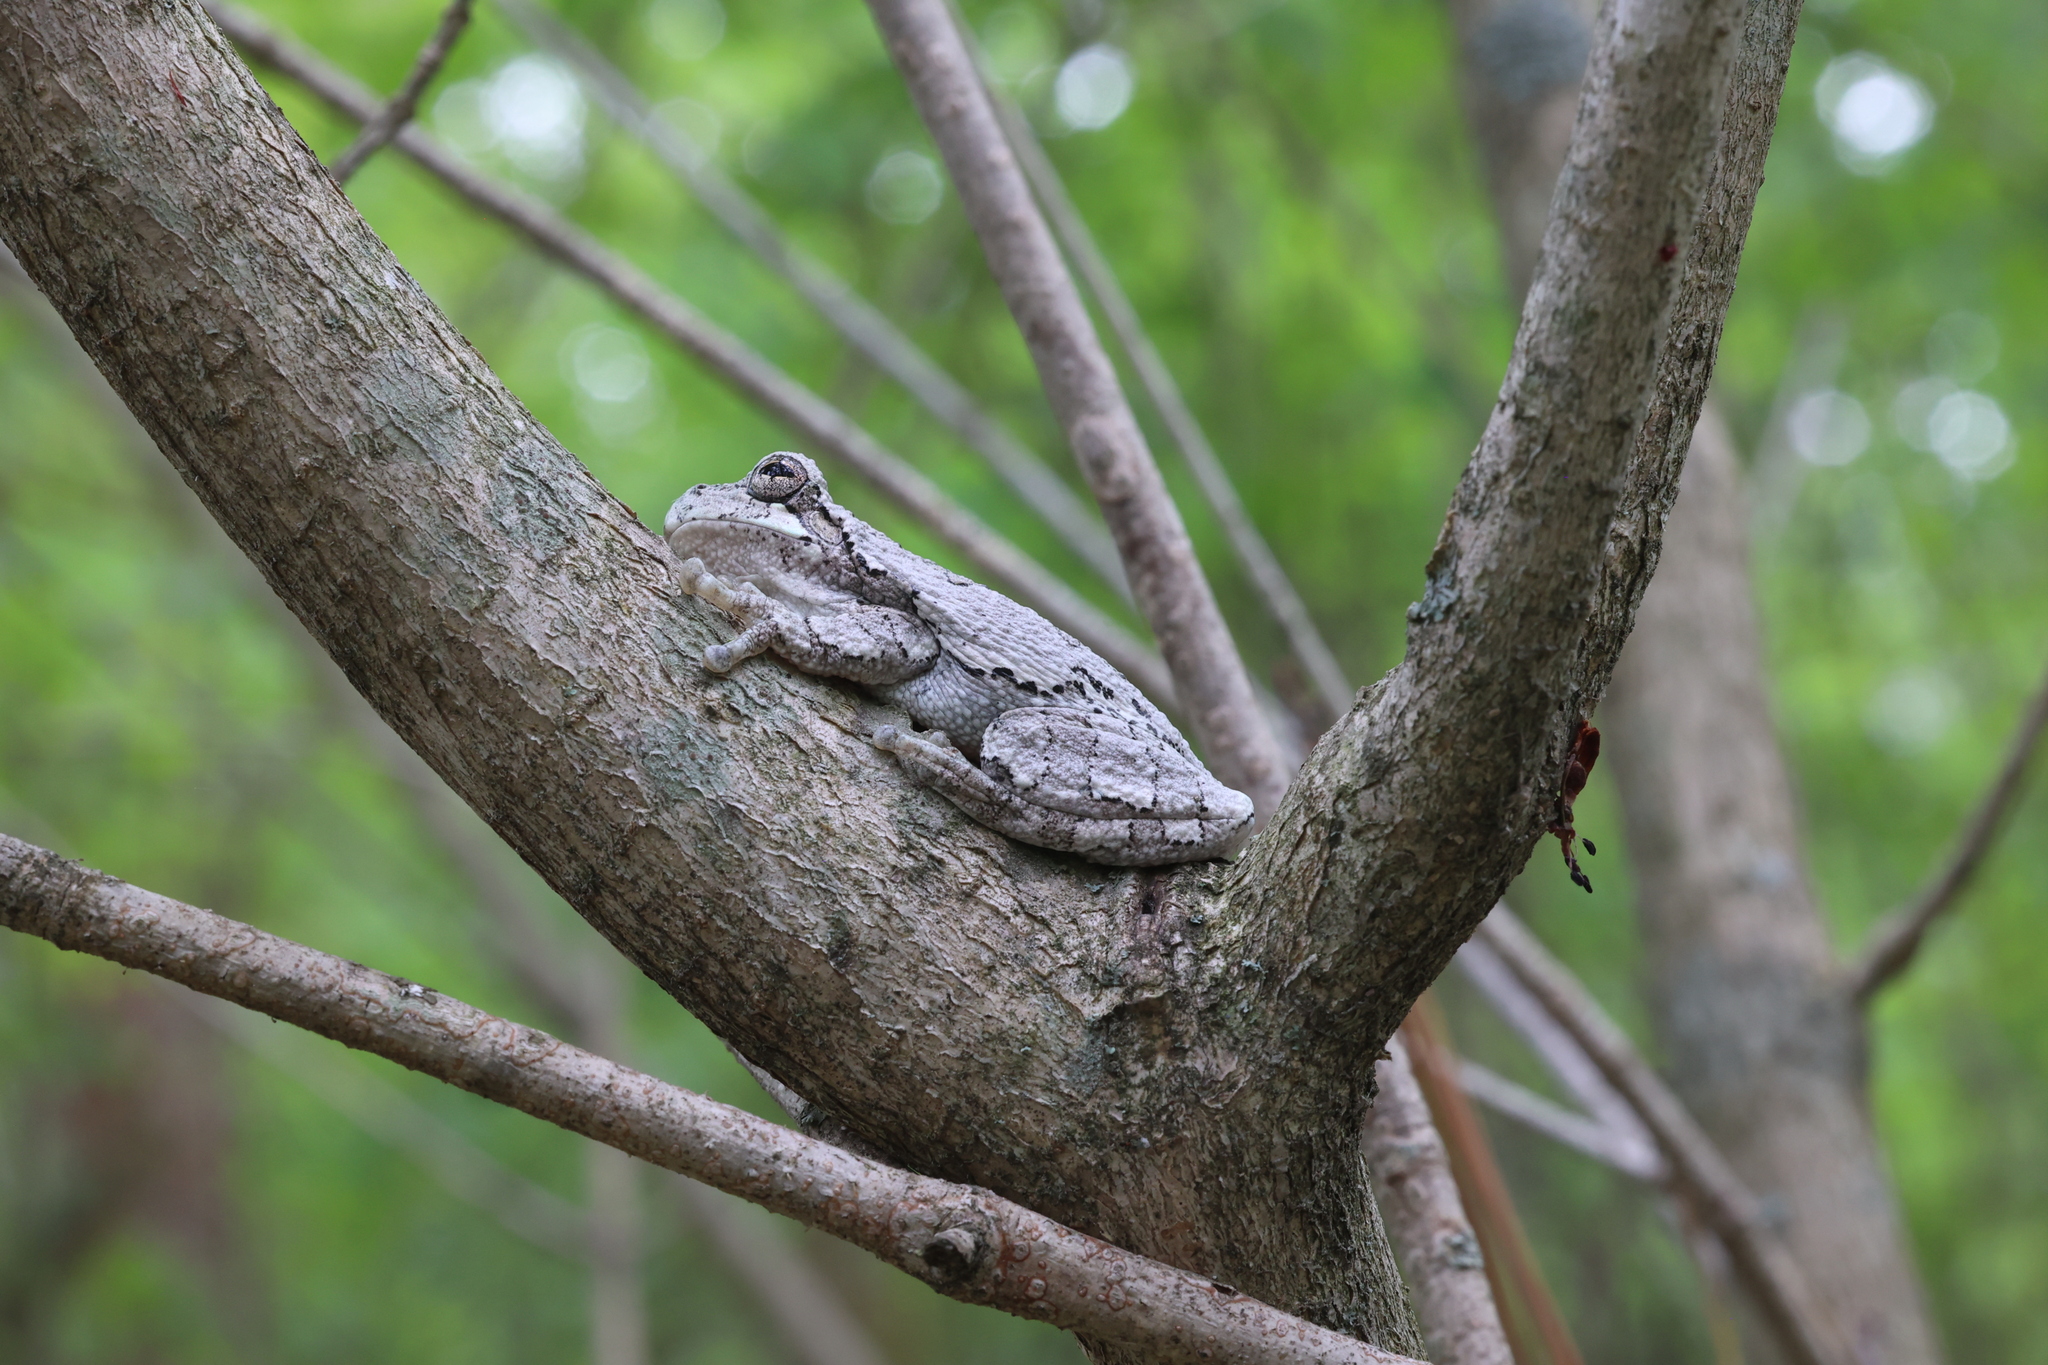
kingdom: Animalia
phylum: Chordata
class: Amphibia
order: Anura
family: Hylidae
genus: Hyla
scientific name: Hyla
